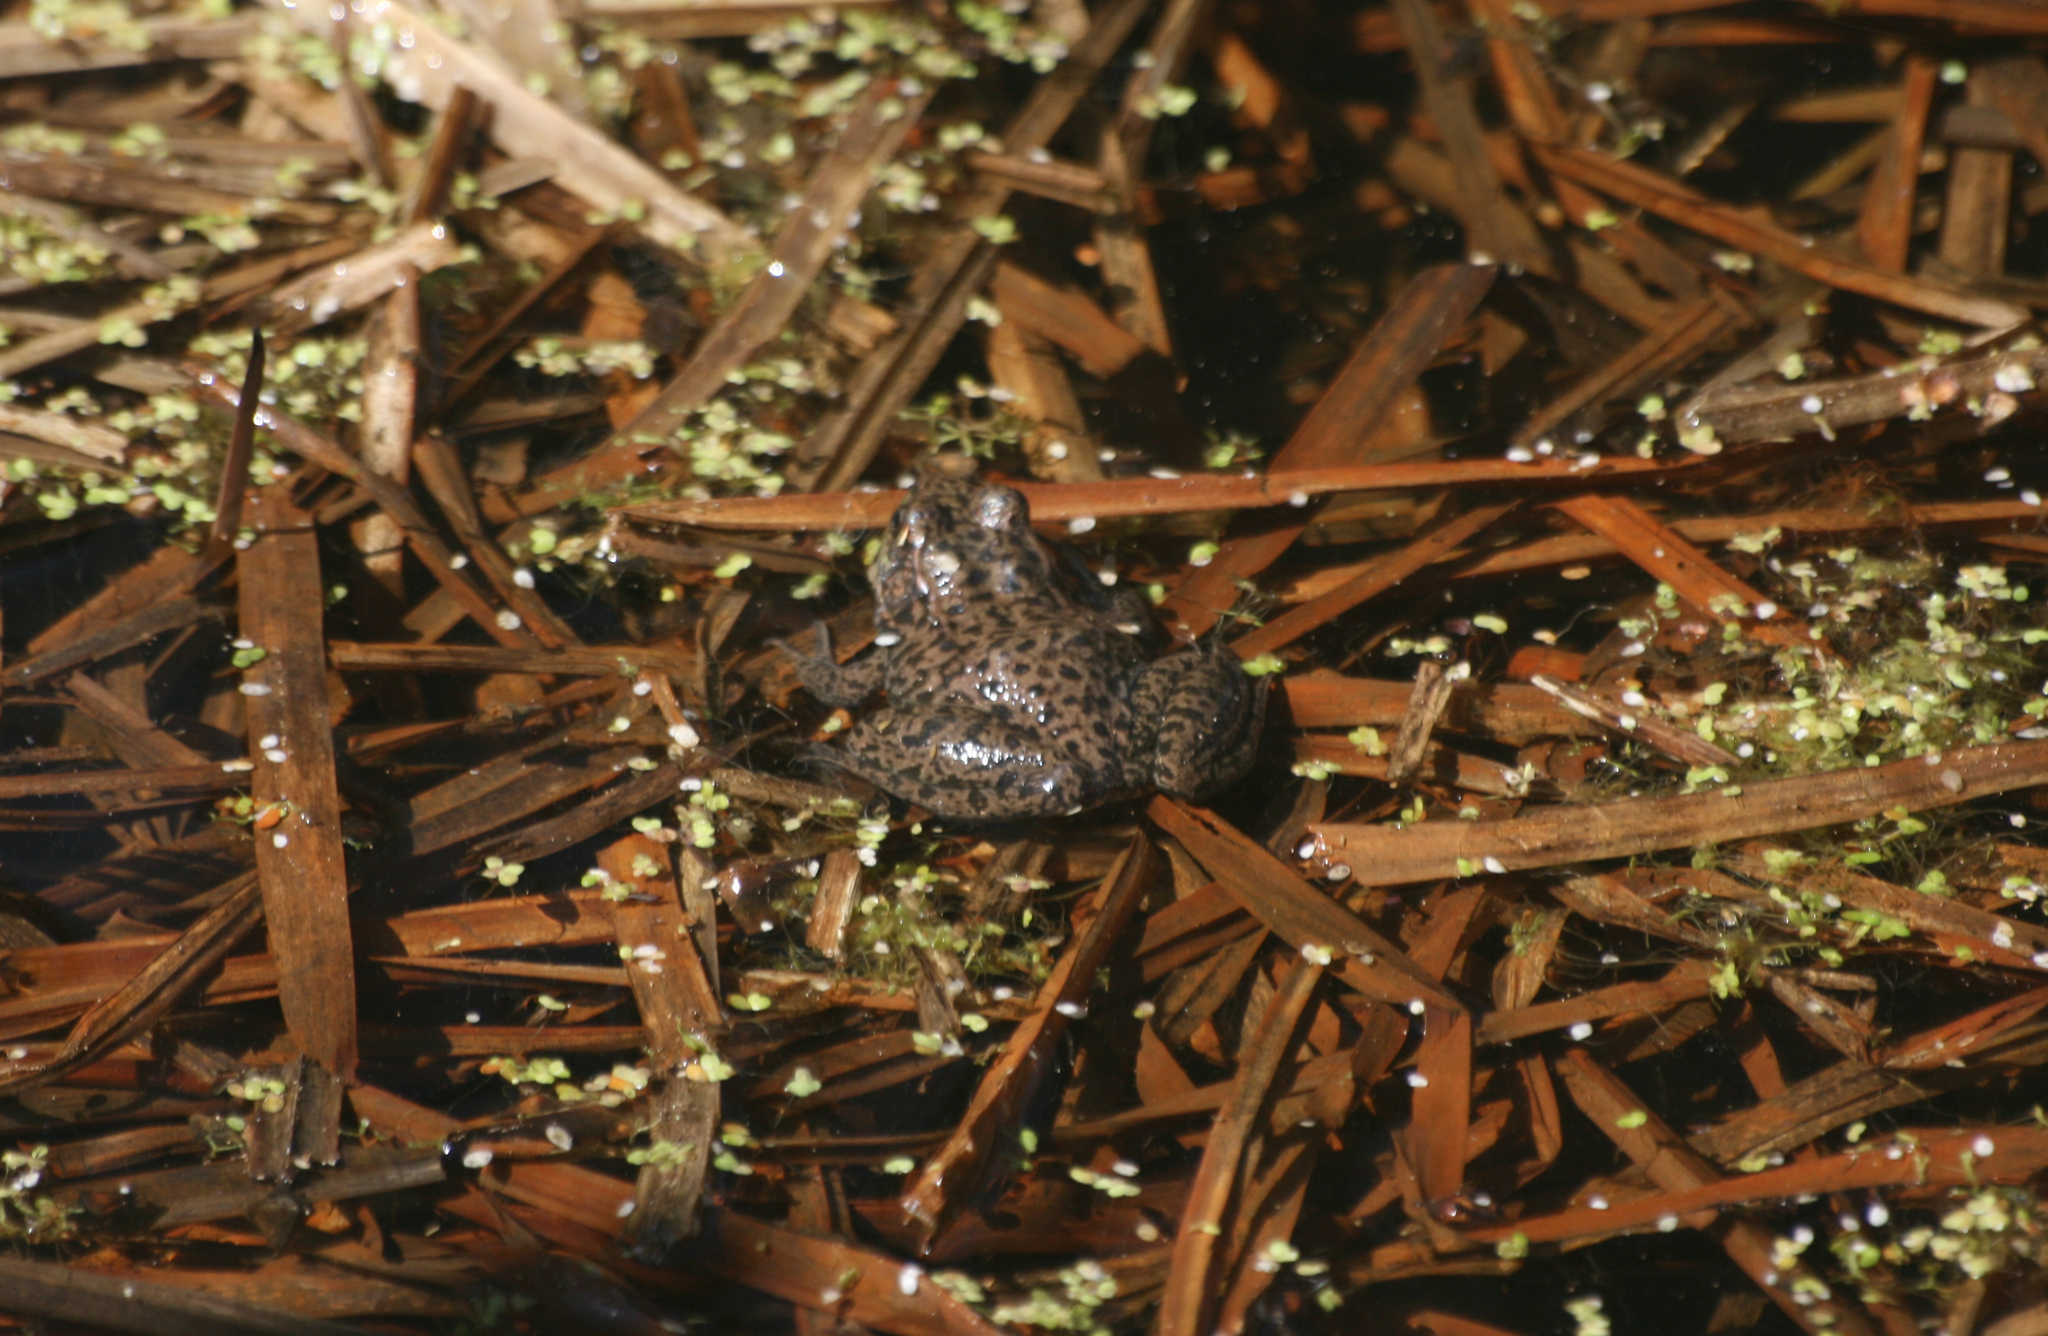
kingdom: Animalia
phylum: Chordata
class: Amphibia
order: Anura
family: Ranidae
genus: Lithobates
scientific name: Lithobates clamitans
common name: Green frog
